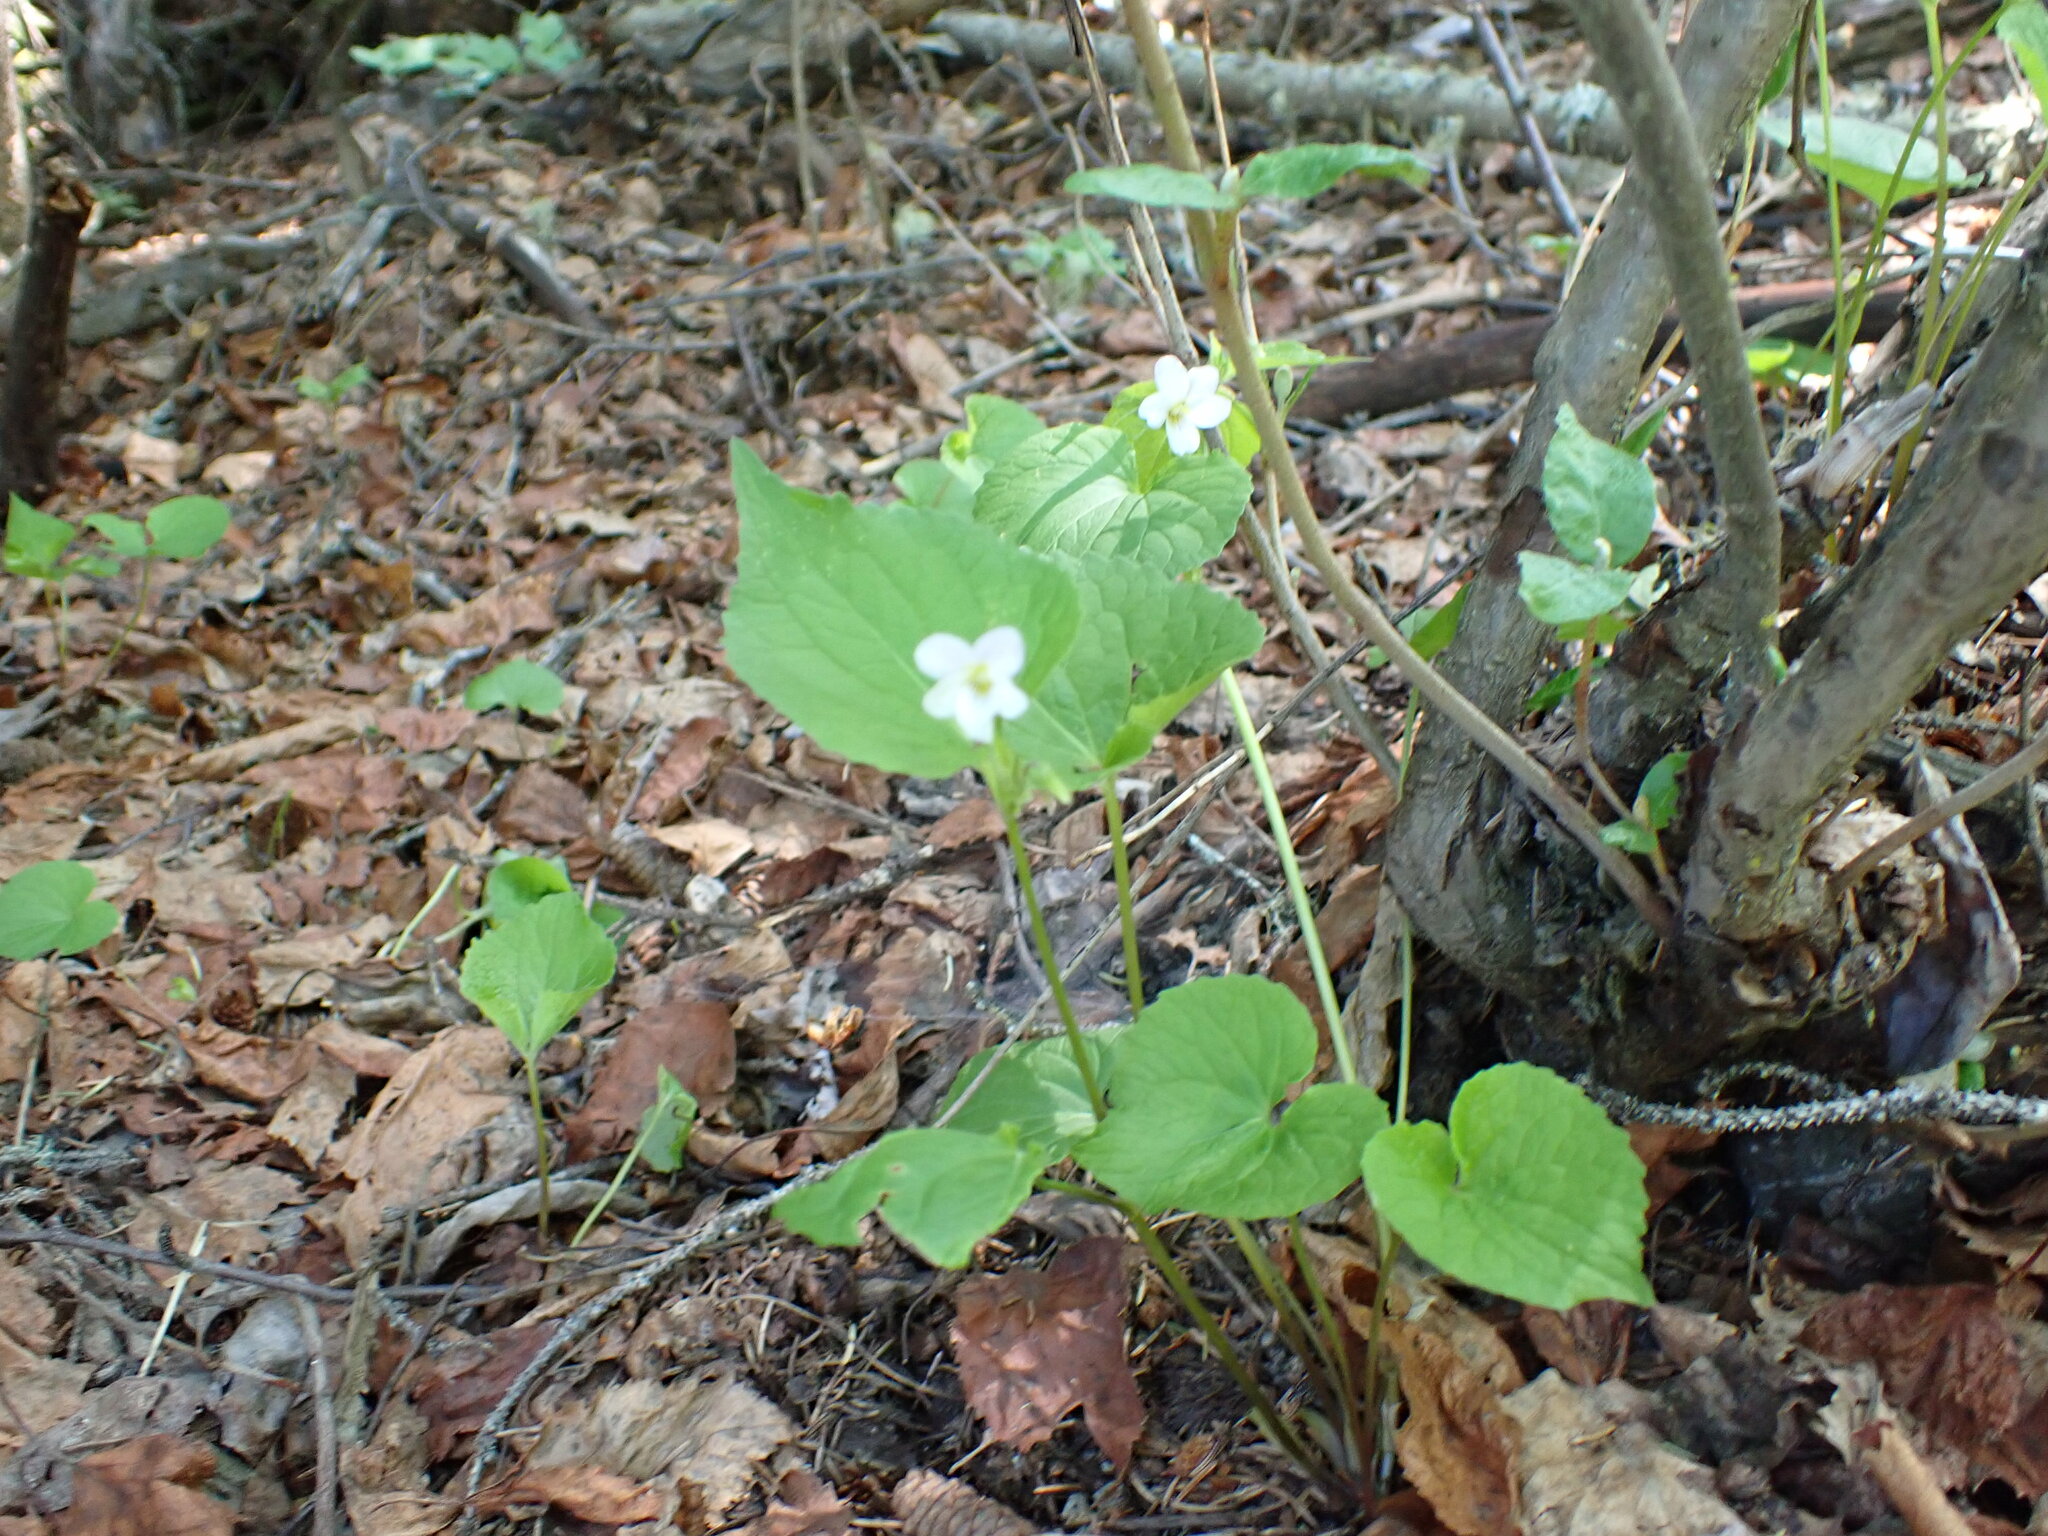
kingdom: Plantae
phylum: Tracheophyta
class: Magnoliopsida
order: Malpighiales
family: Violaceae
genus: Viola
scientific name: Viola canadensis
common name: Canada violet
